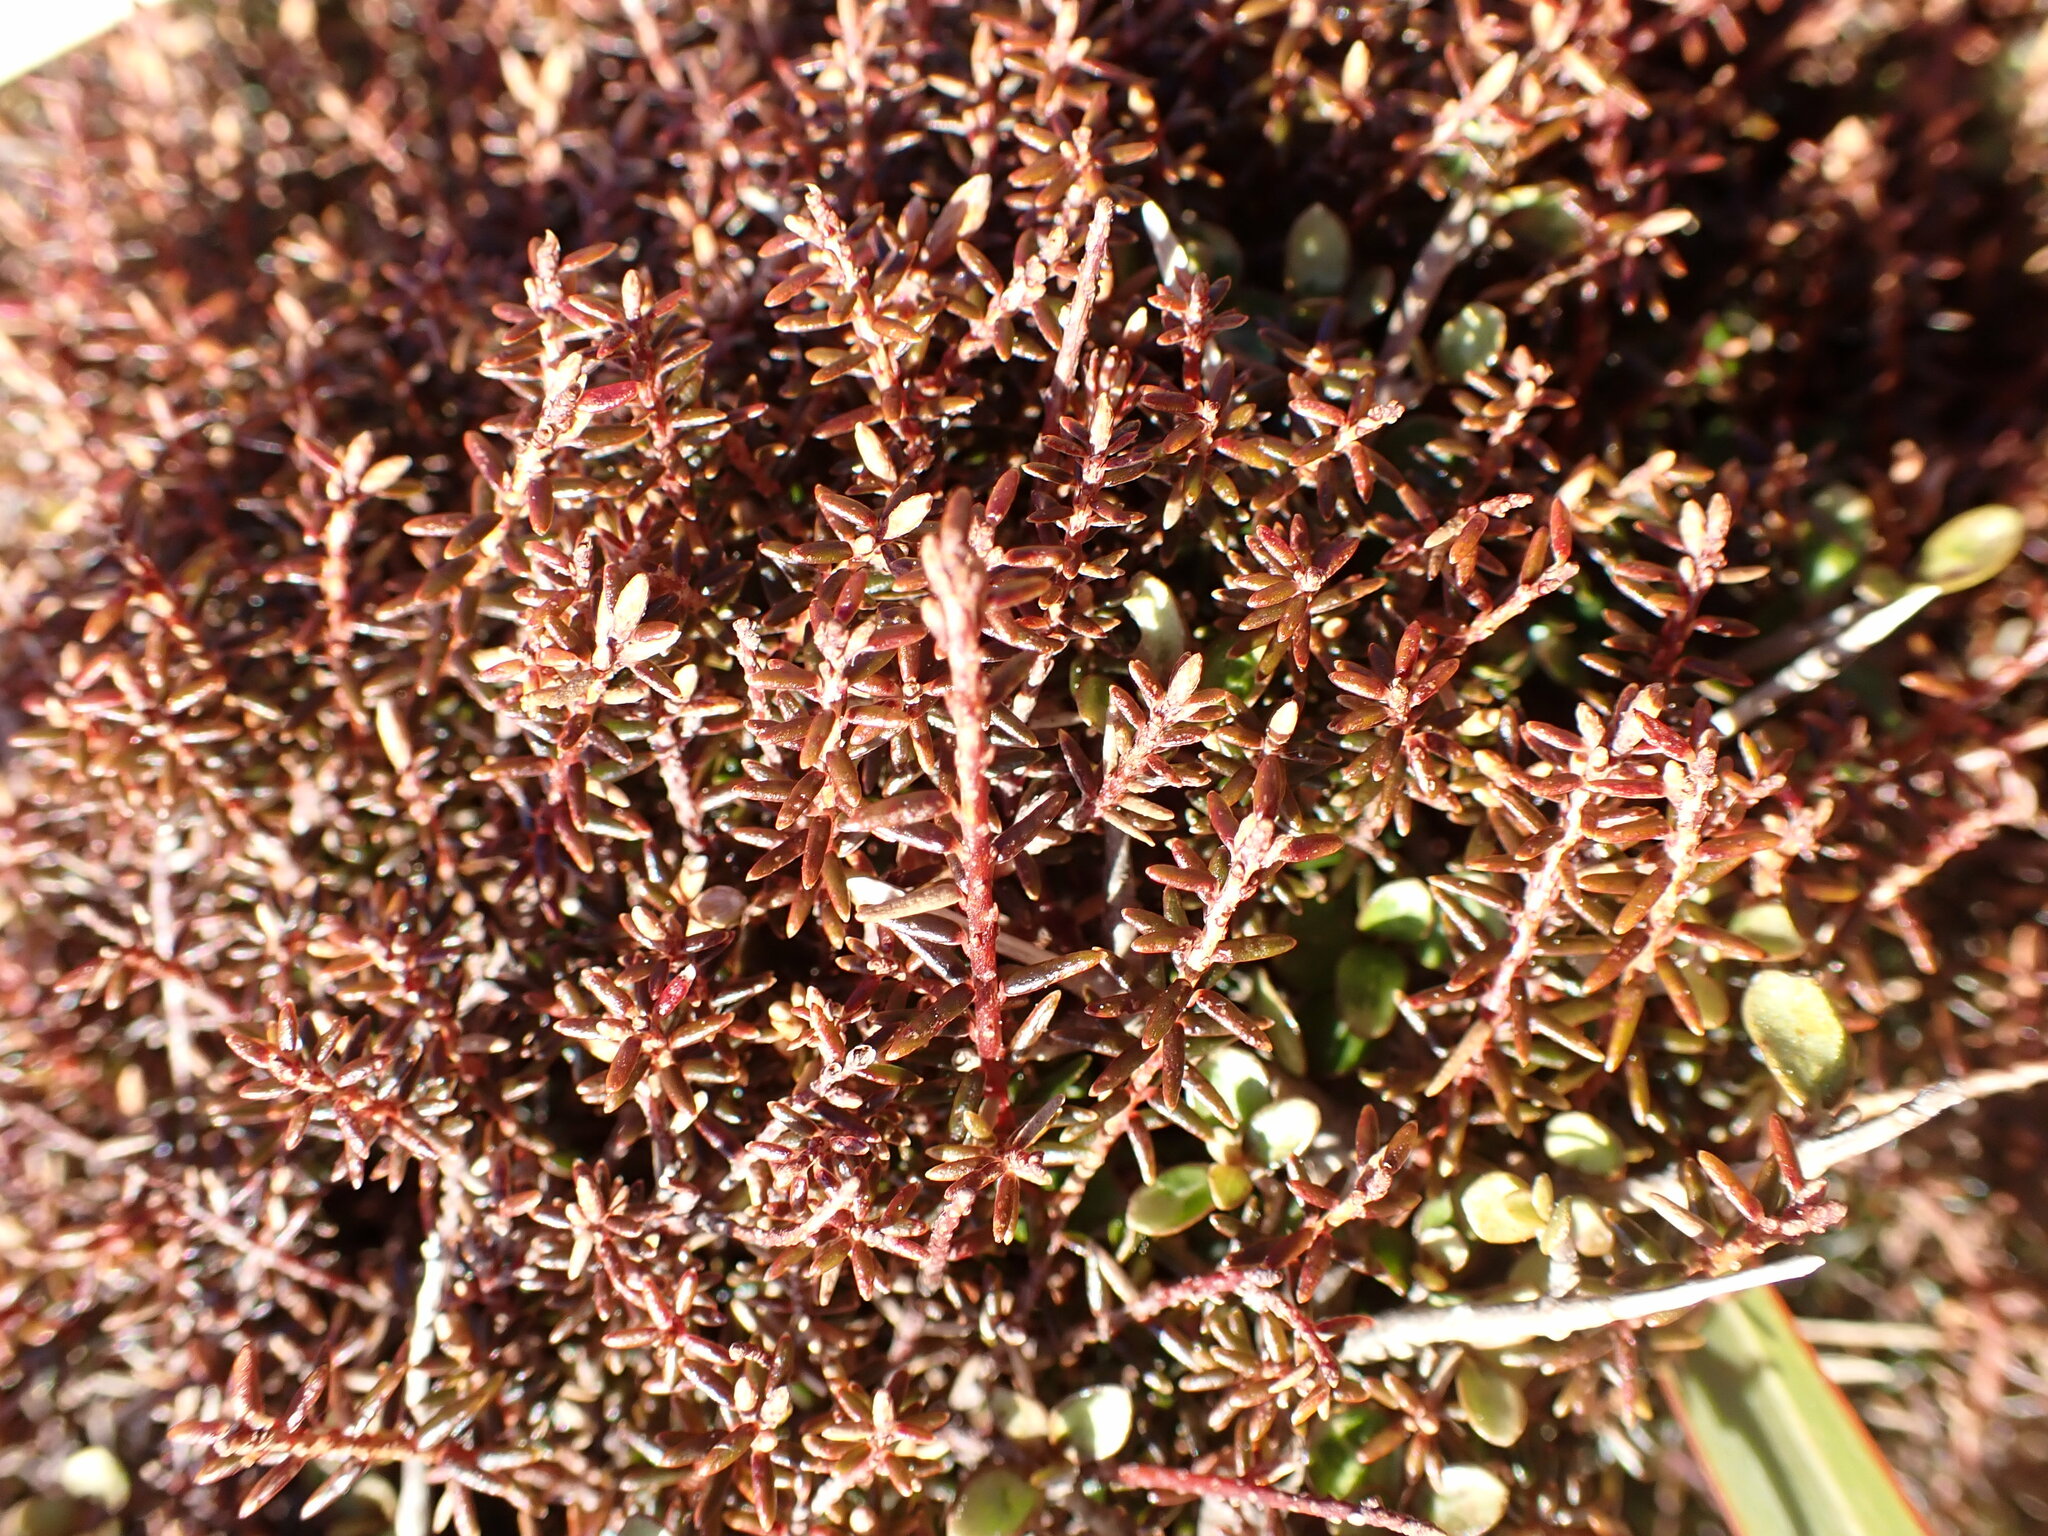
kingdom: Plantae
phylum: Tracheophyta
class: Magnoliopsida
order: Ericales
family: Ericaceae
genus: Androstoma
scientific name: Androstoma empetrifolia
